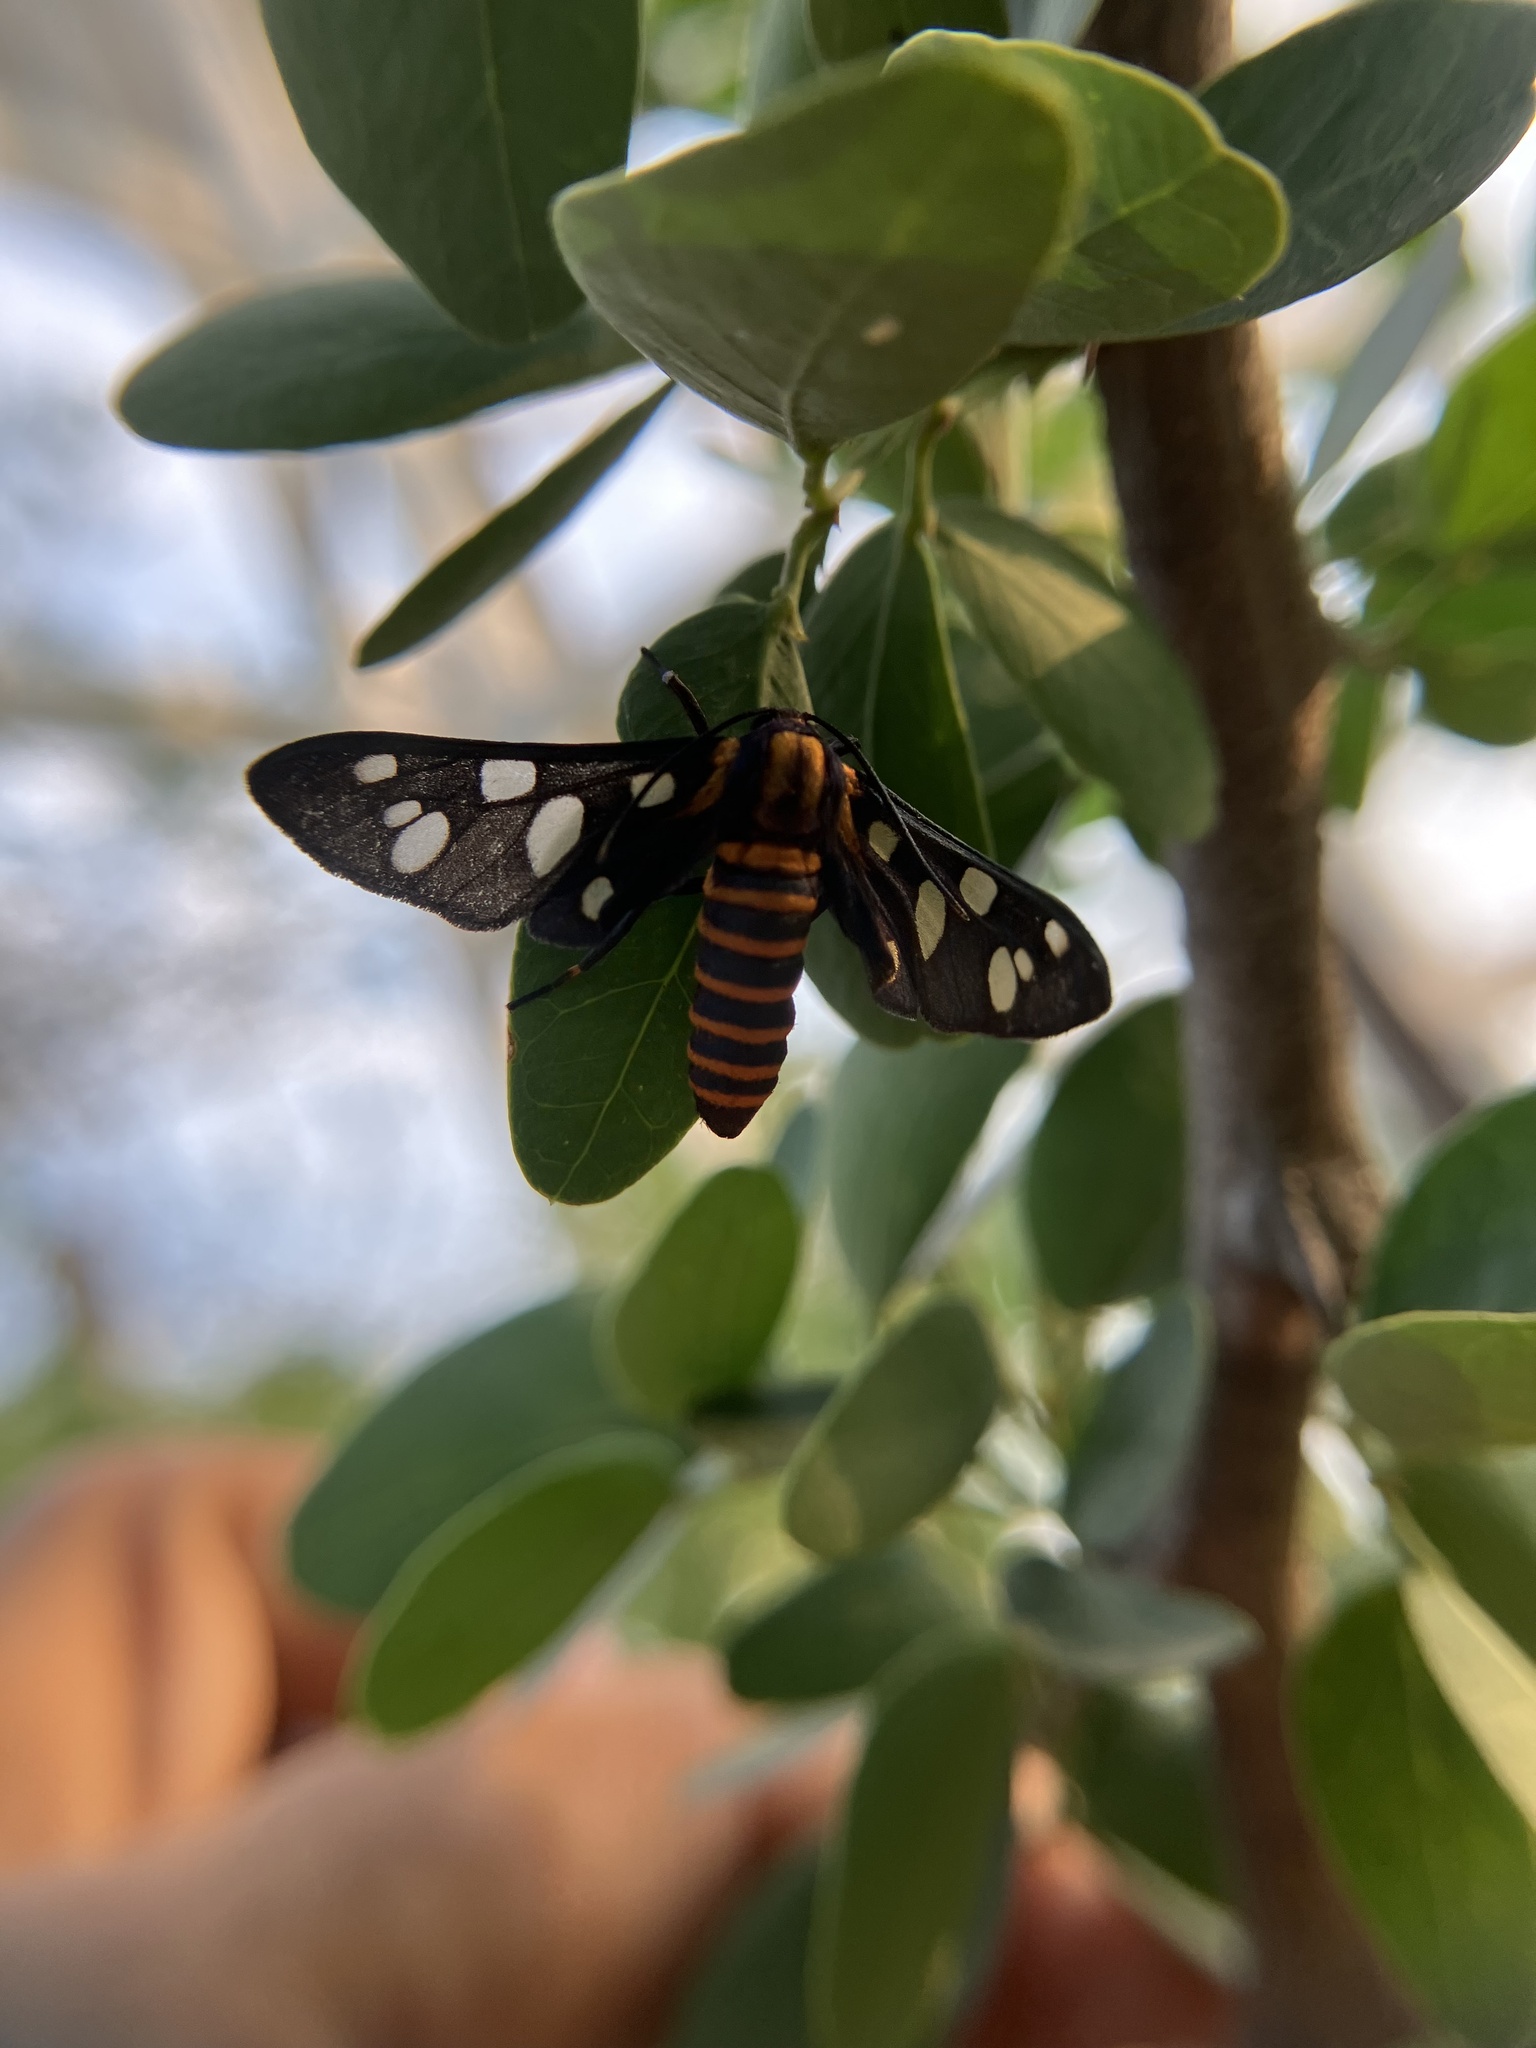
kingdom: Animalia
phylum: Arthropoda
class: Insecta
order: Lepidoptera
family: Erebidae
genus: Amata
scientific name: Amata passalis
